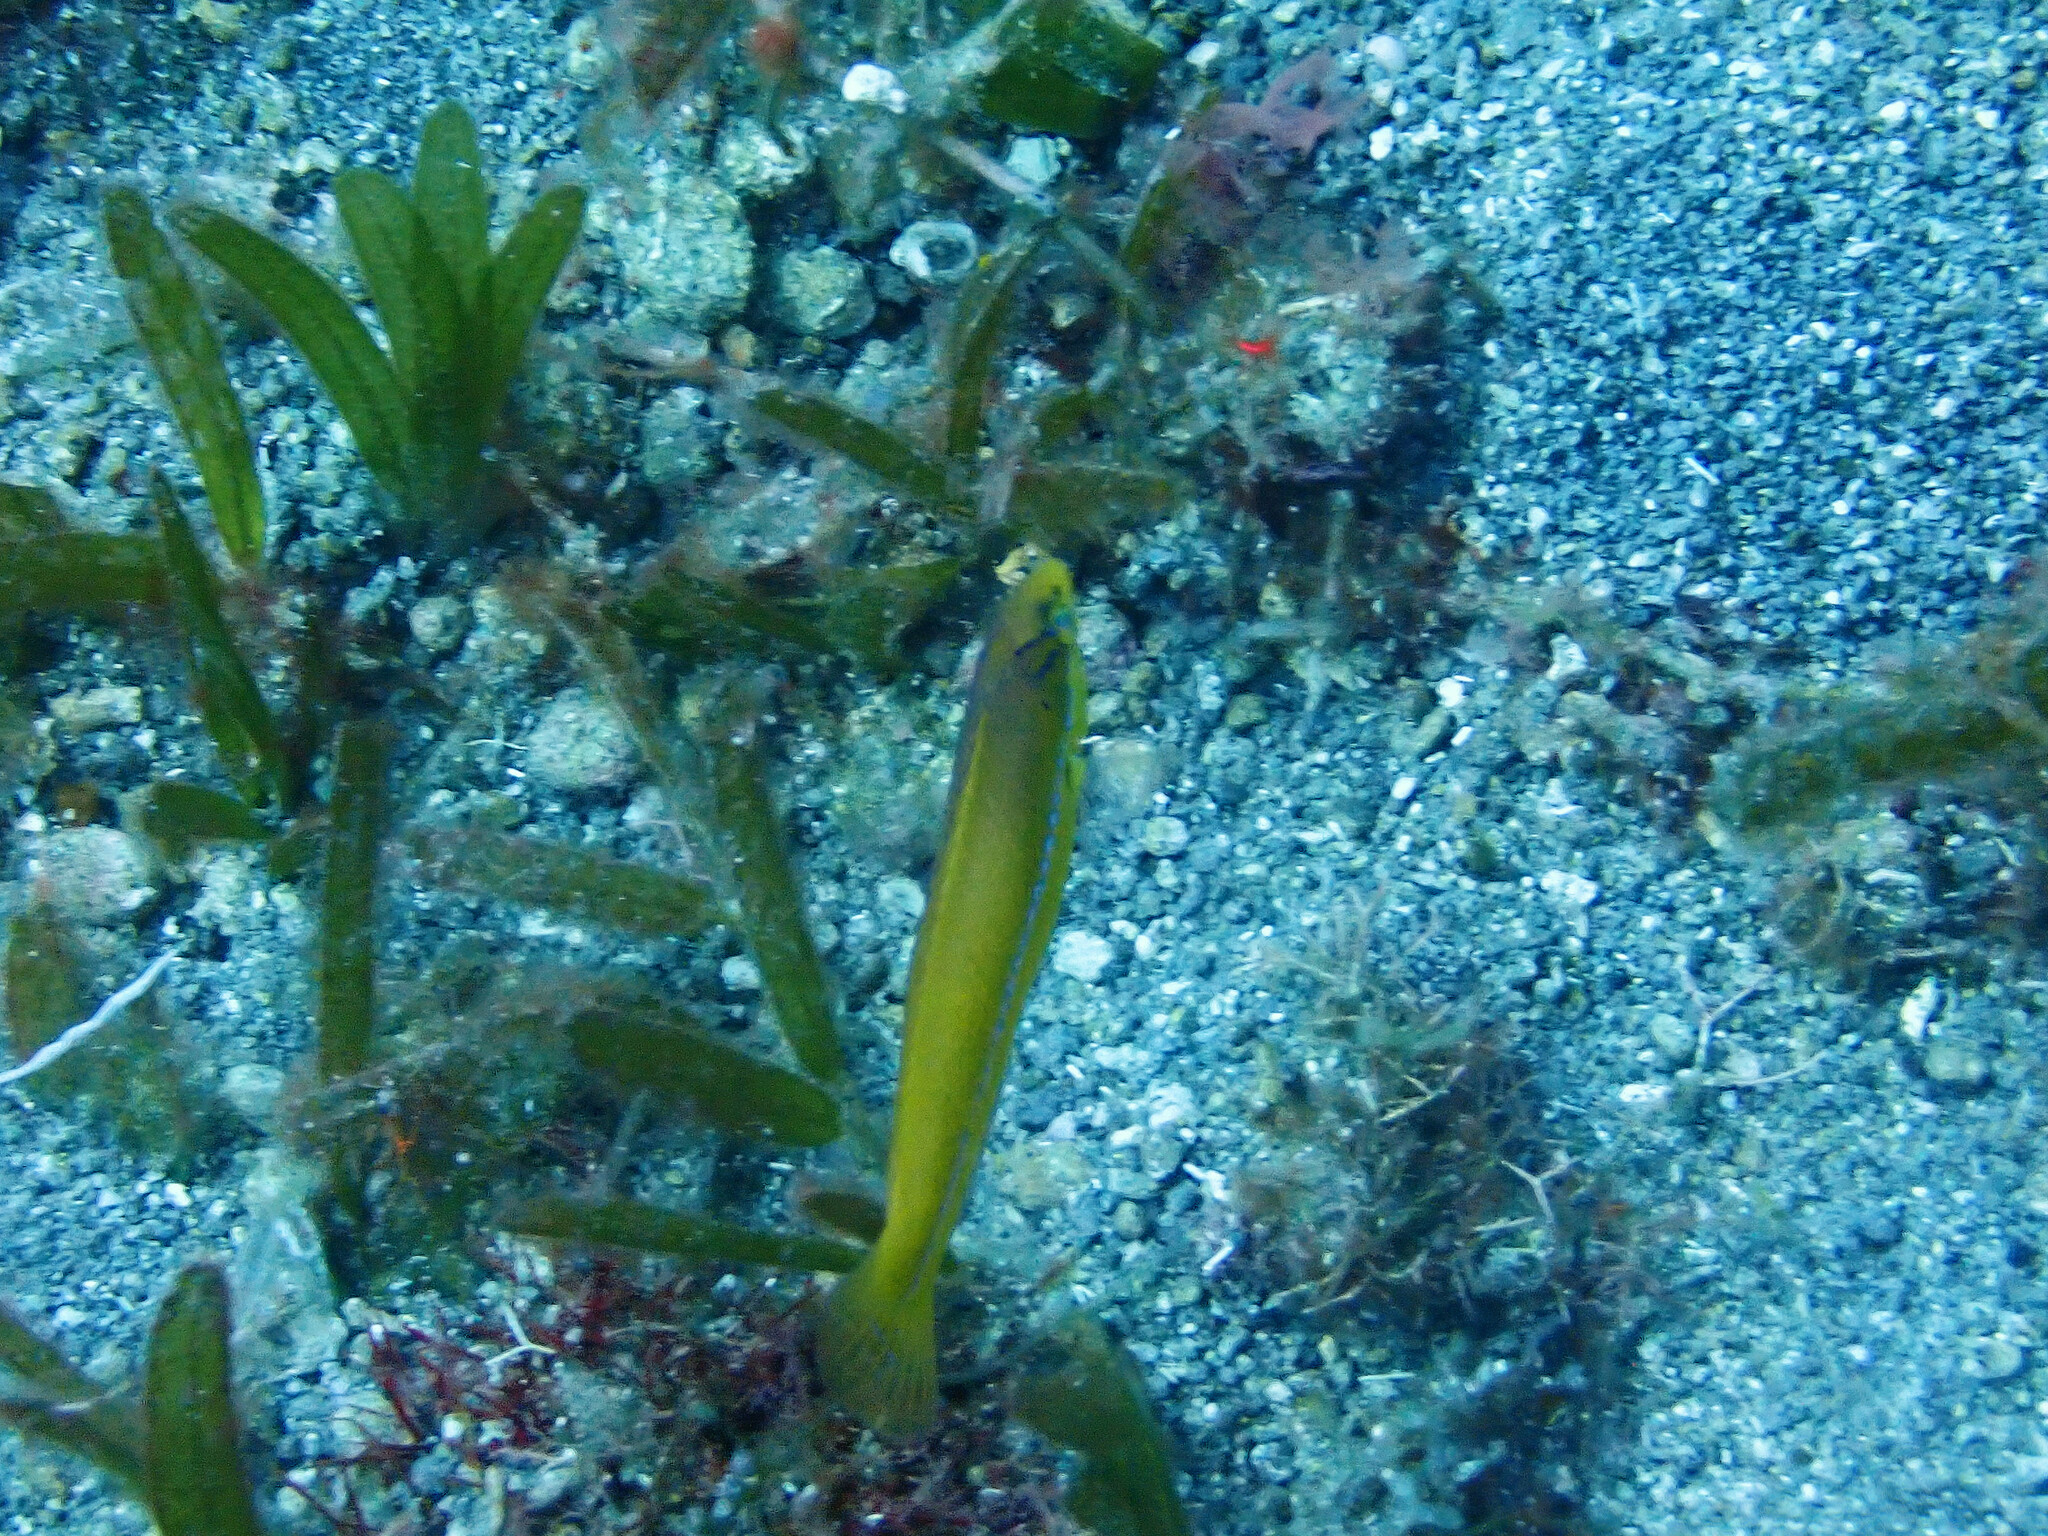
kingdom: Animalia
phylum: Chordata
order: Perciformes
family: Labridae
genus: Halichoeres
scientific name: Halichoeres garnoti
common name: Yellowhead wrasse
